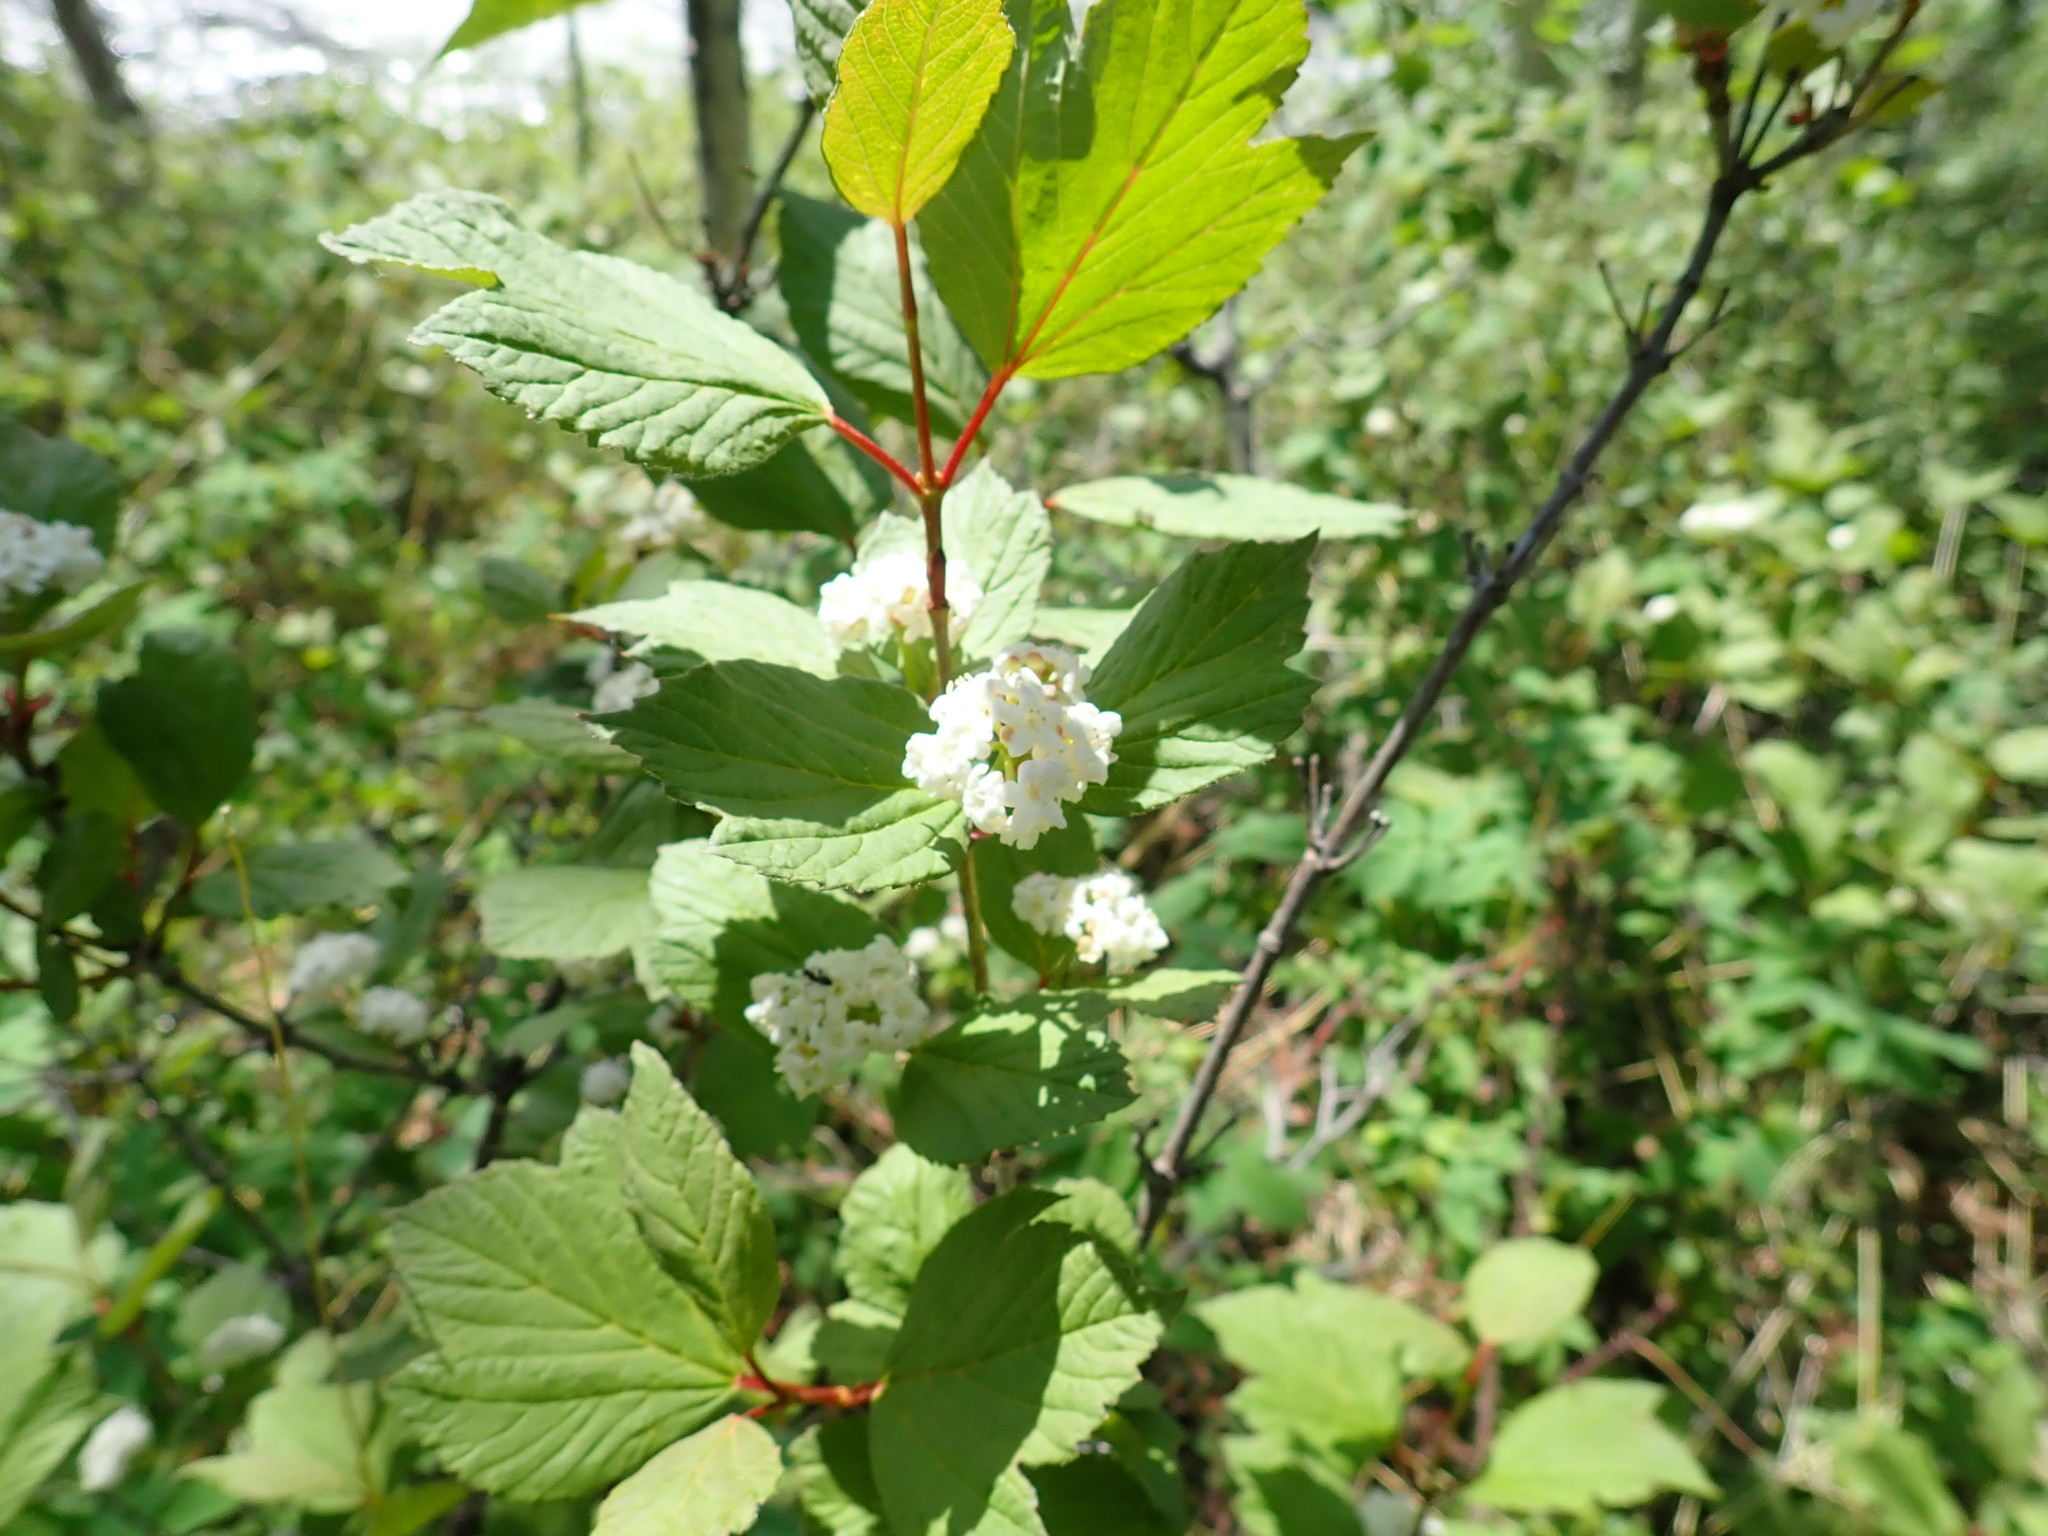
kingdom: Plantae
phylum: Tracheophyta
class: Magnoliopsida
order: Dipsacales
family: Viburnaceae
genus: Viburnum
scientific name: Viburnum edule
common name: Mooseberry
